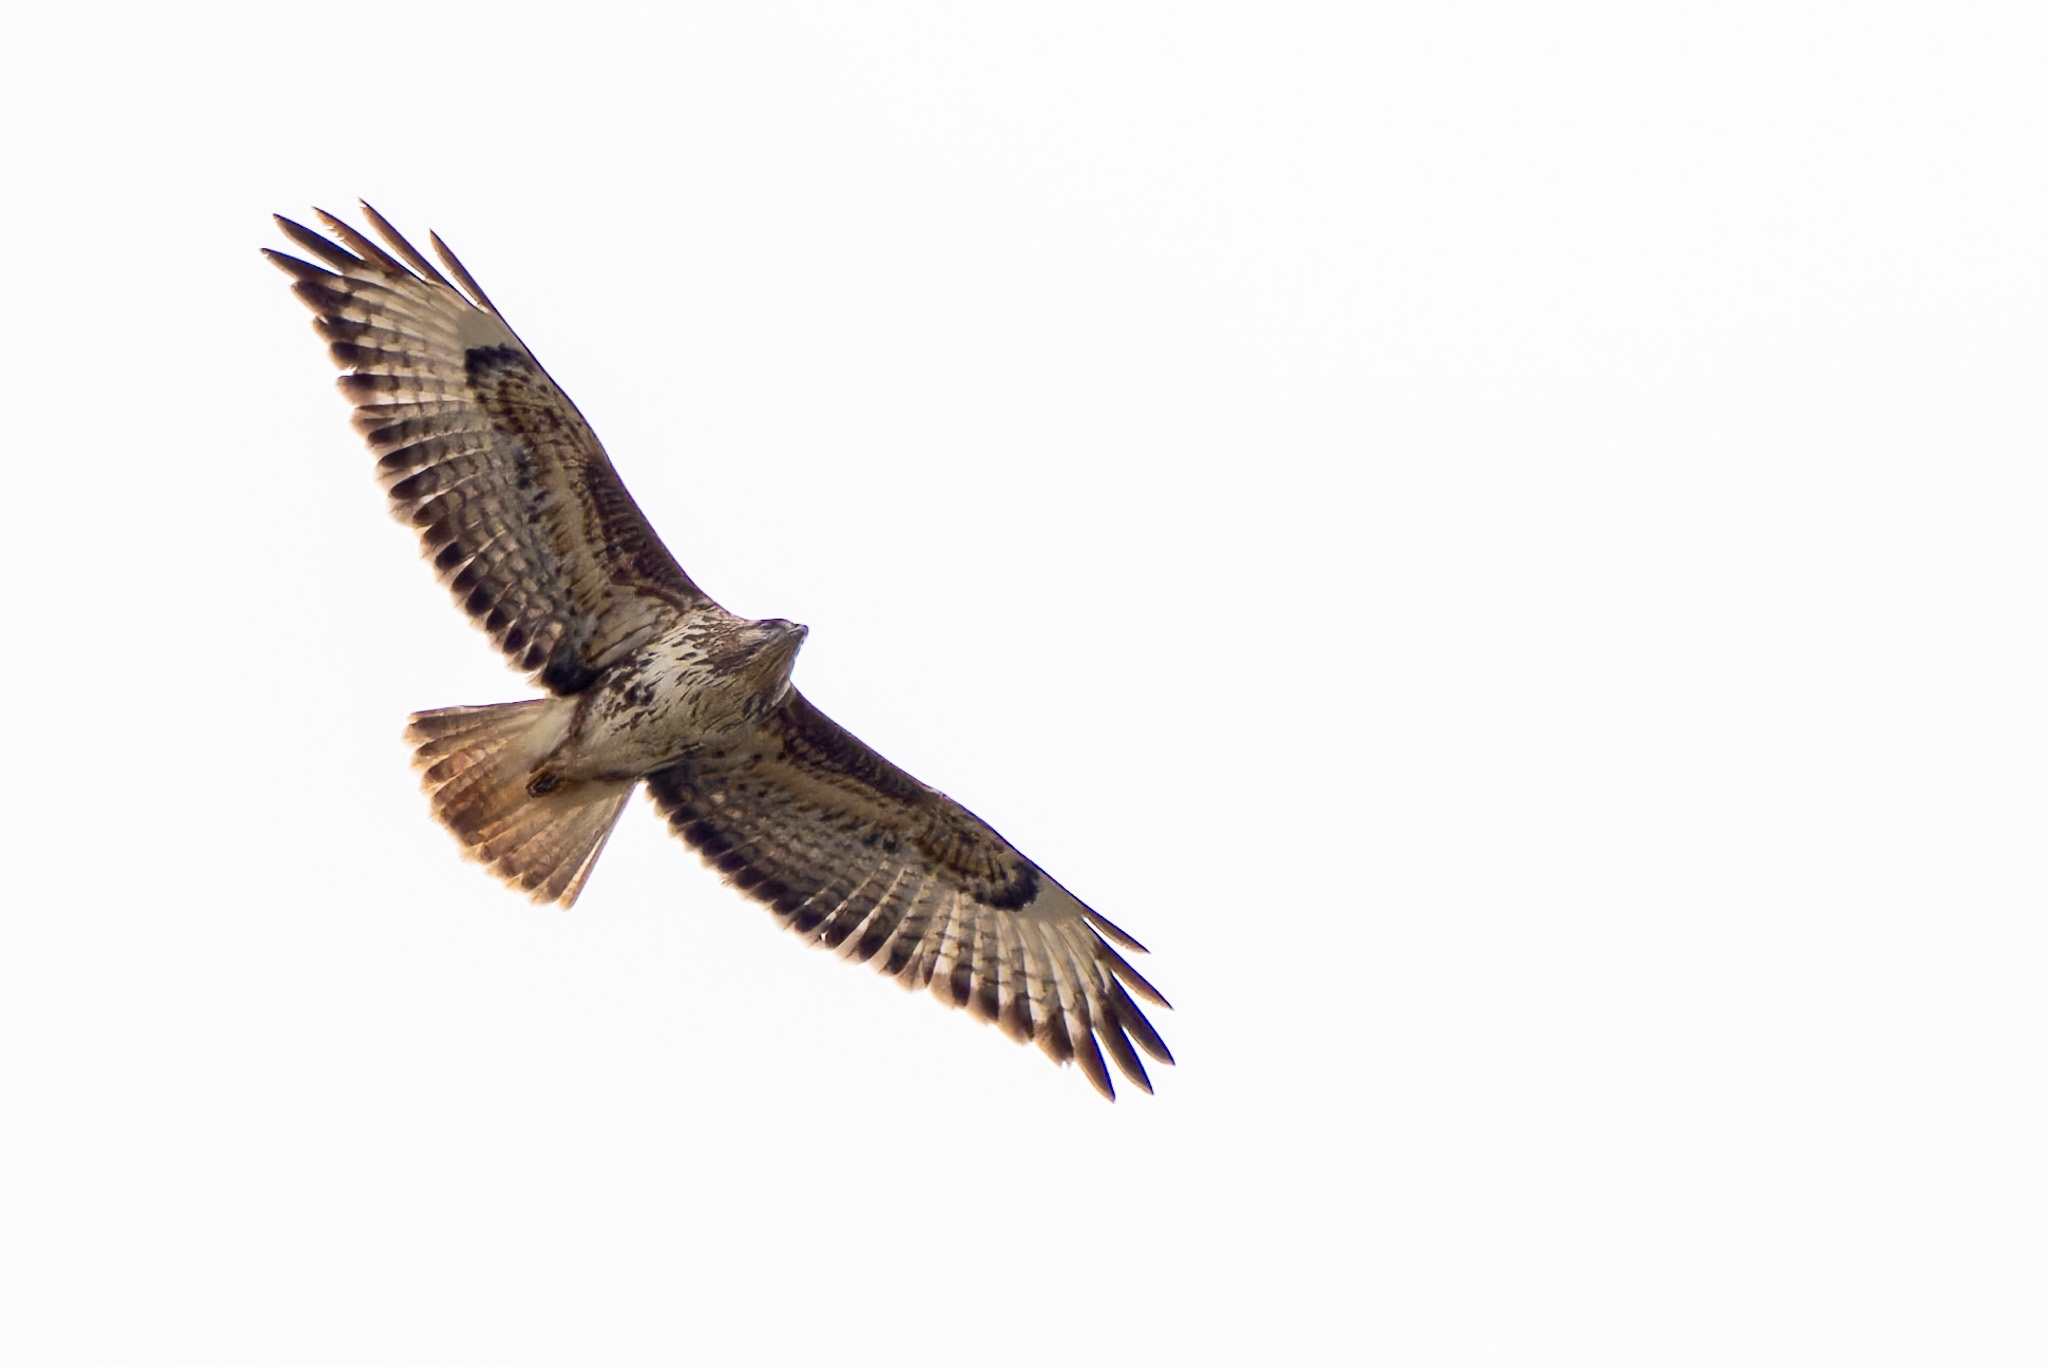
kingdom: Animalia
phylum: Chordata
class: Aves
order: Accipitriformes
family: Accipitridae
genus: Buteo
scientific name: Buteo buteo
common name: Common buzzard
